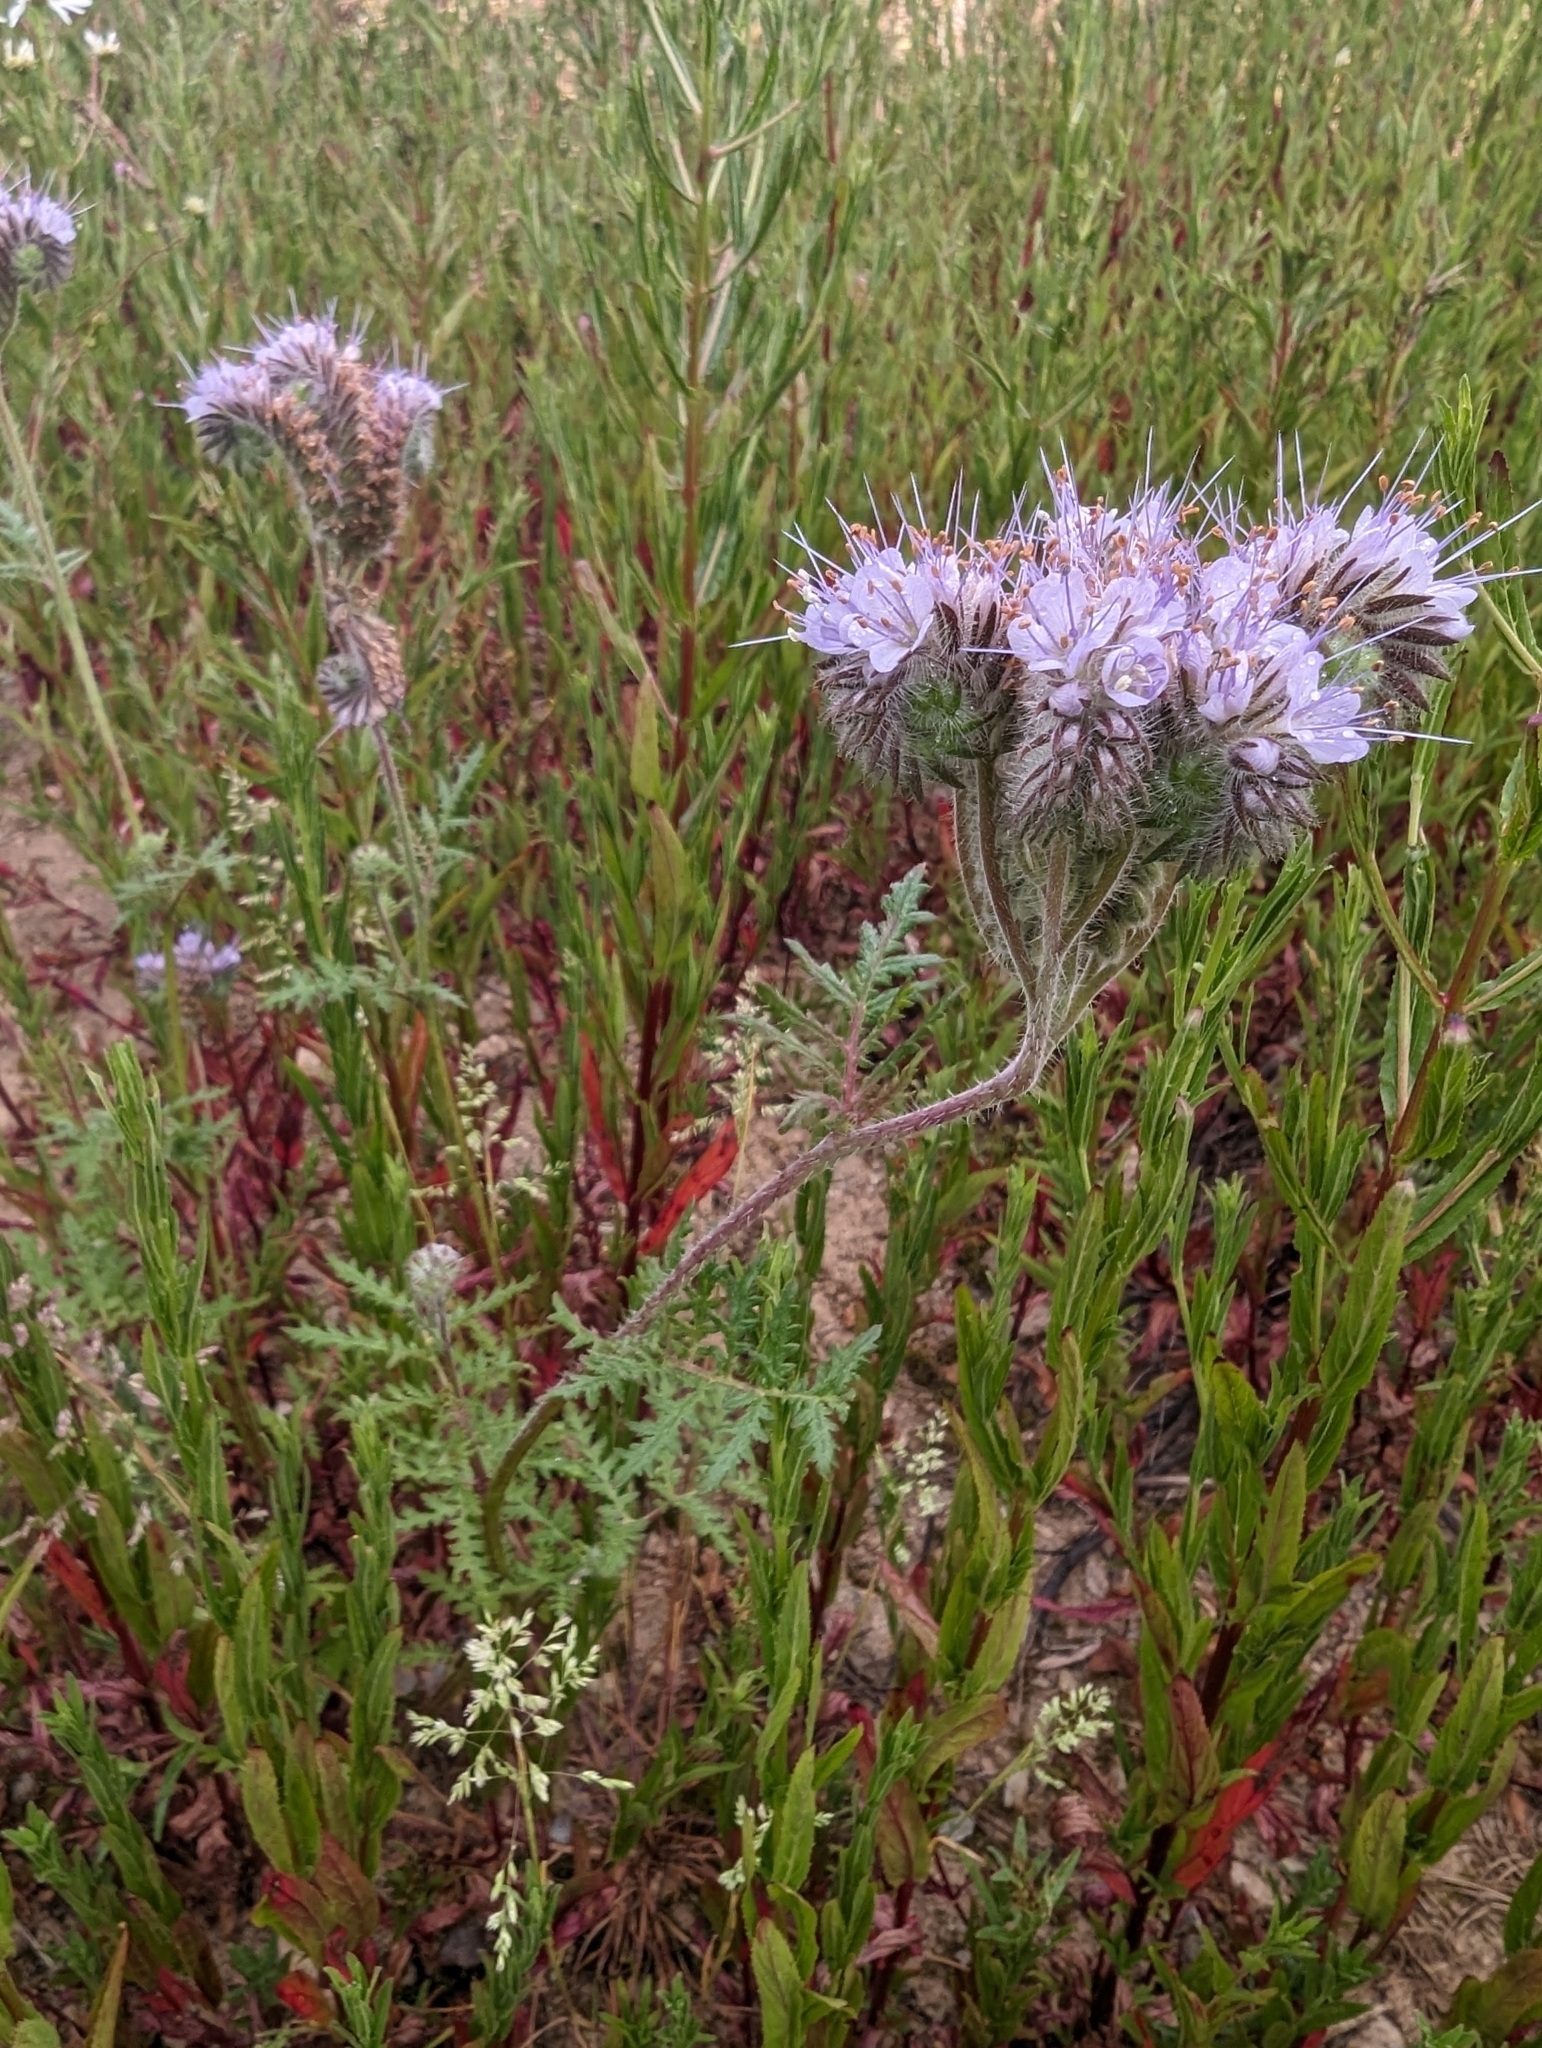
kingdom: Plantae
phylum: Tracheophyta
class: Magnoliopsida
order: Boraginales
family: Hydrophyllaceae
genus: Phacelia
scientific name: Phacelia tanacetifolia
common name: Phacelia
